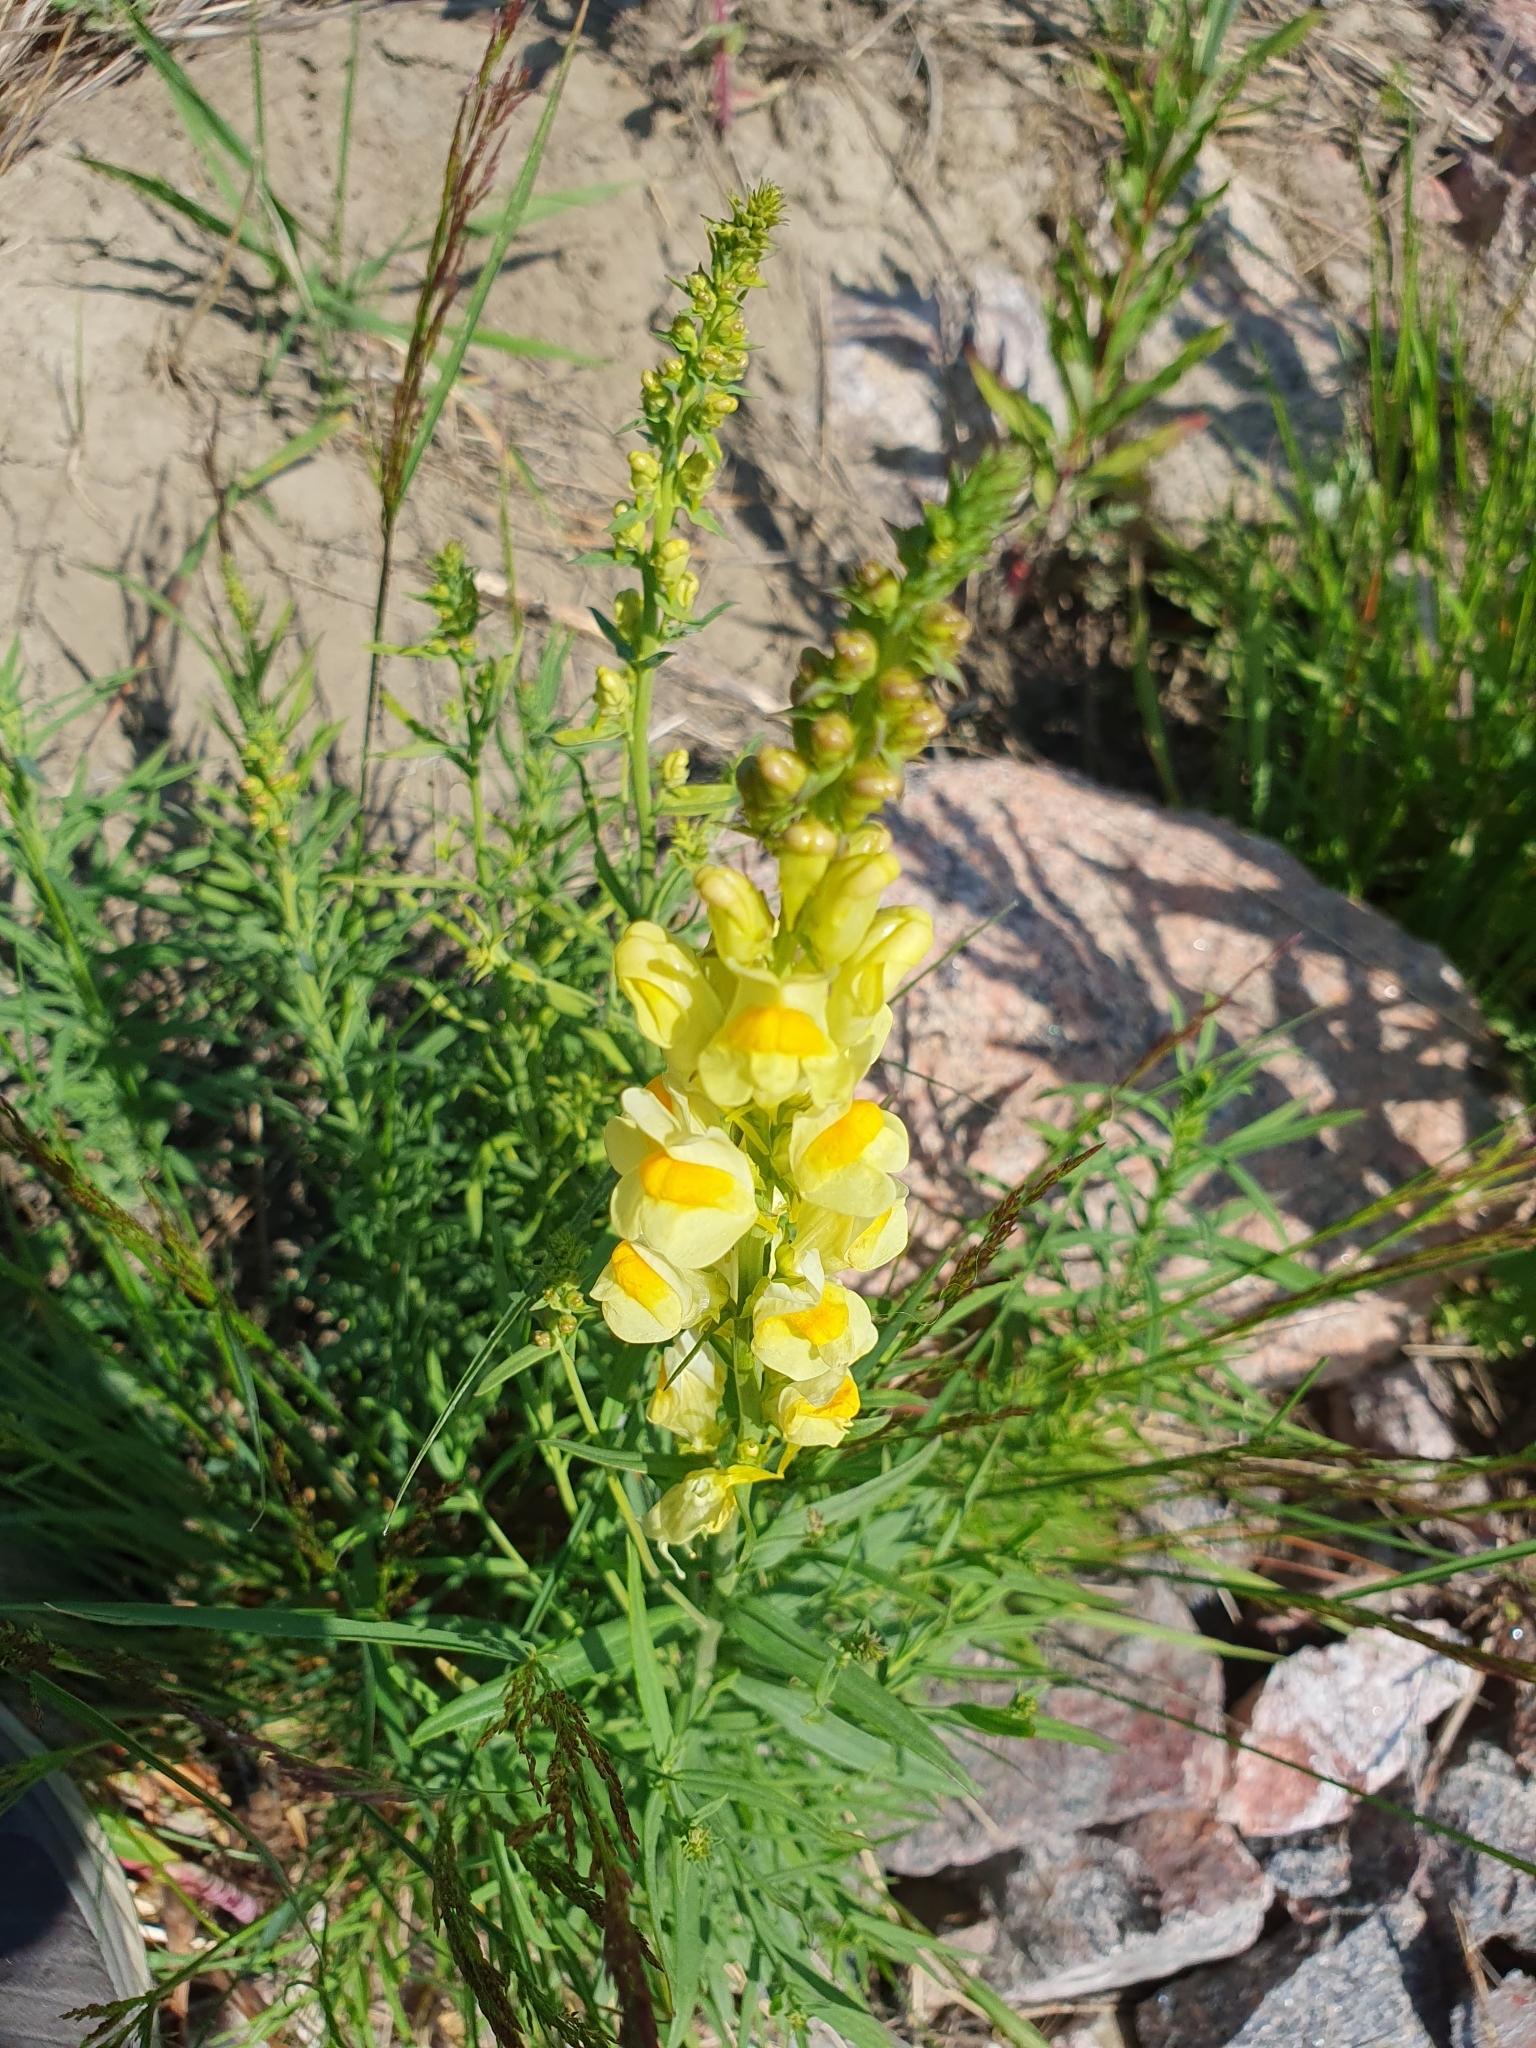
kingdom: Plantae
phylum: Tracheophyta
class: Magnoliopsida
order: Lamiales
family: Plantaginaceae
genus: Linaria
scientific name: Linaria vulgaris
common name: Butter and eggs
